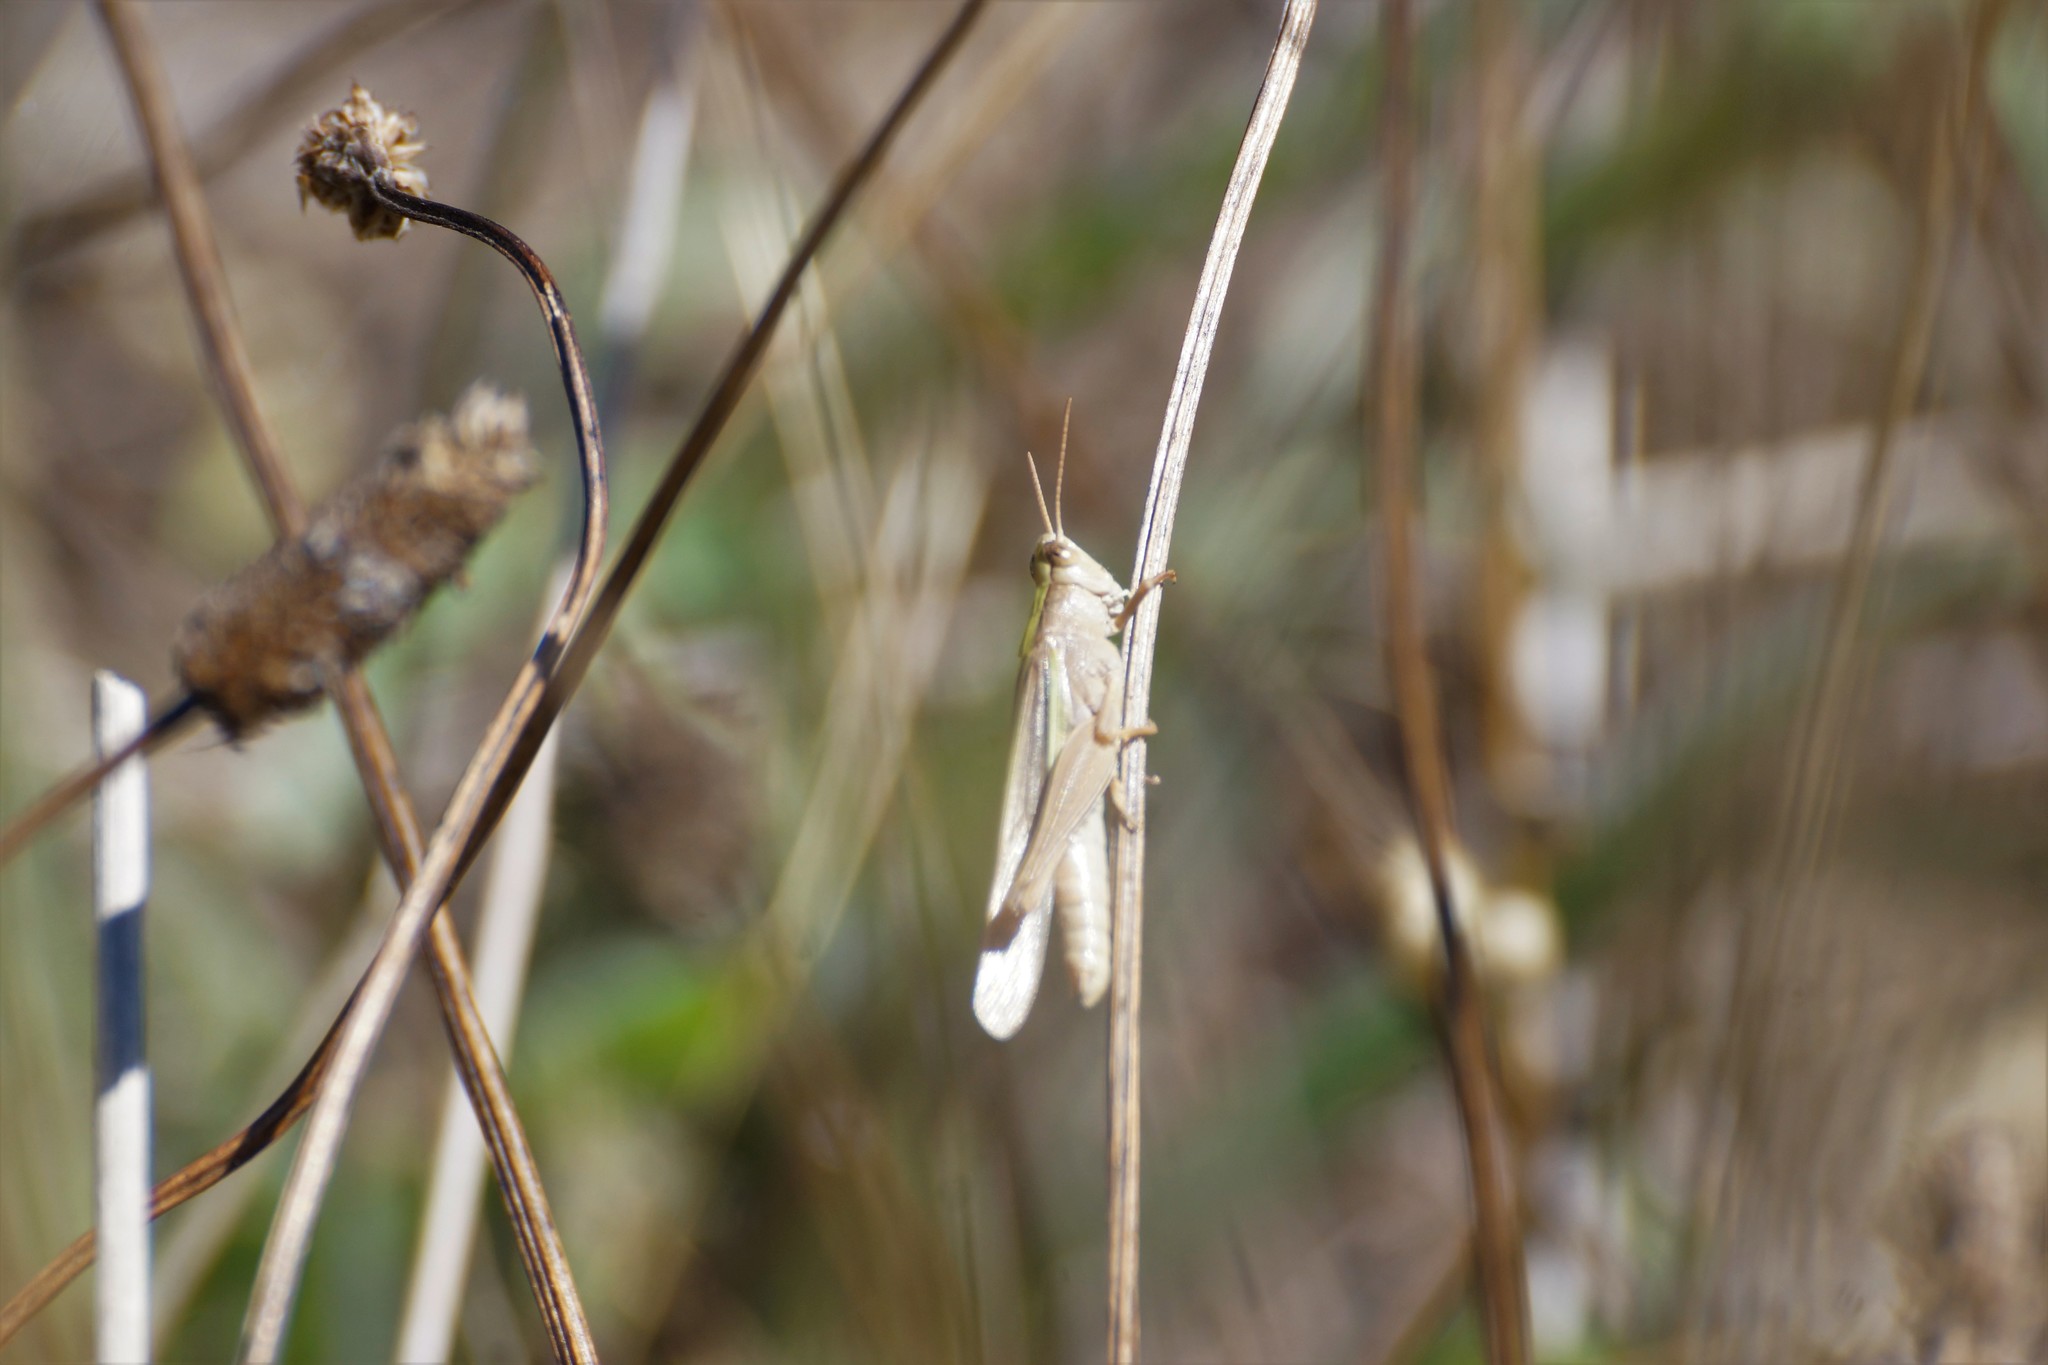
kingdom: Animalia
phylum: Arthropoda
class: Insecta
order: Orthoptera
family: Acrididae
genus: Schizobothrus
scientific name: Schizobothrus flavovittatus
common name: Disappearing grasshopper
